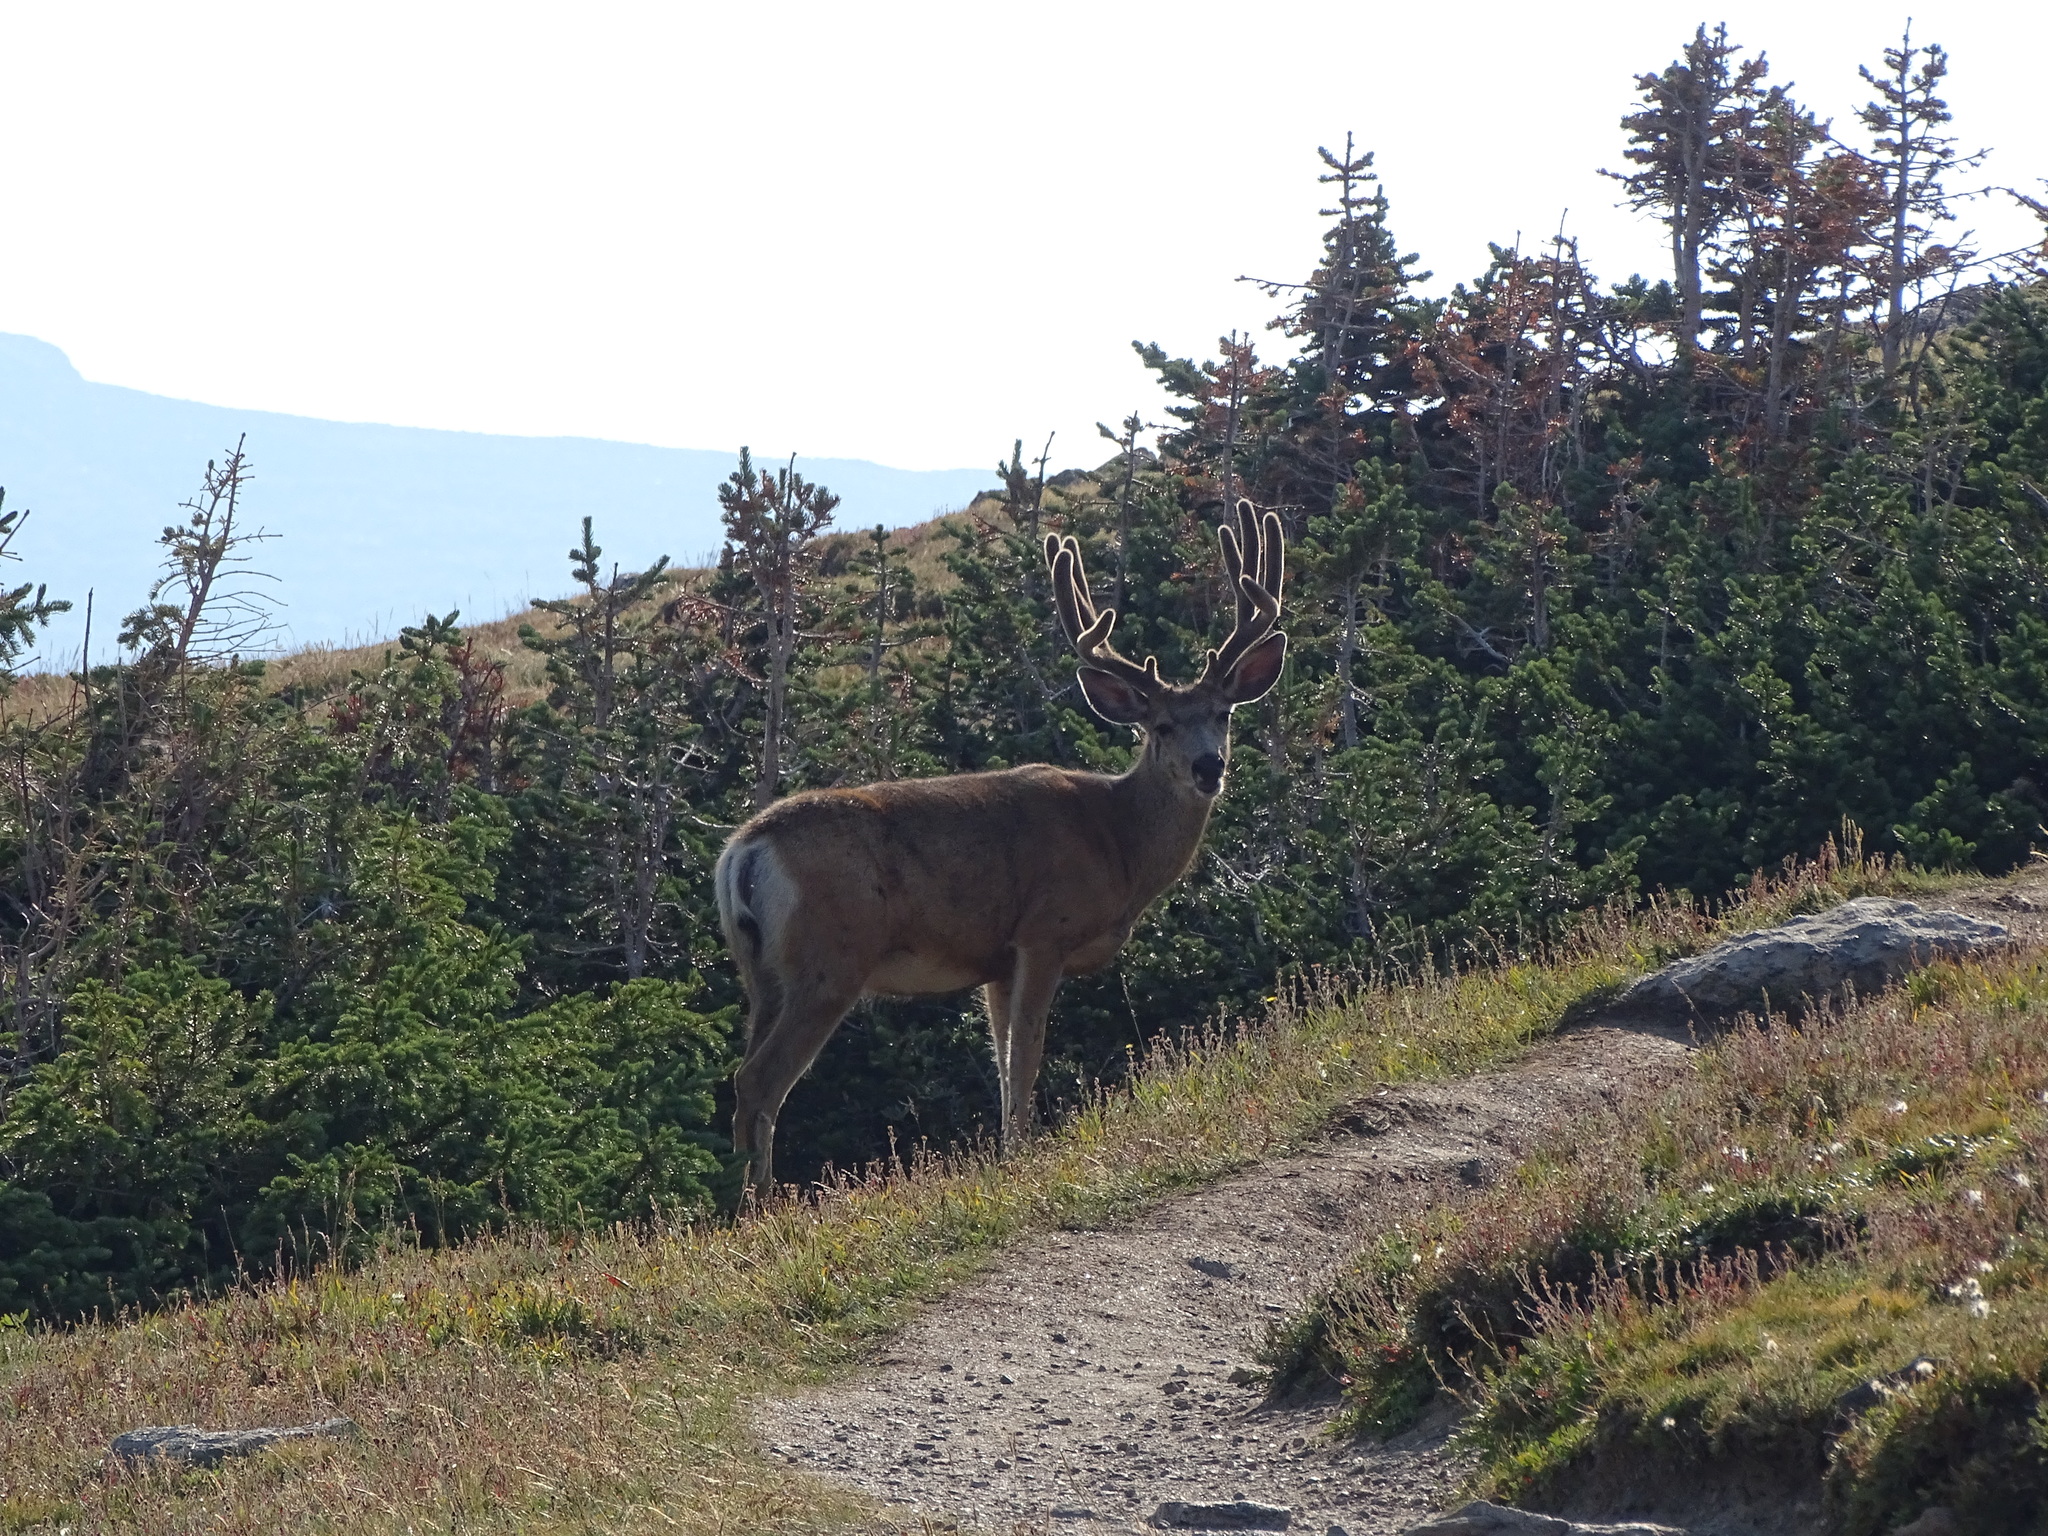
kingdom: Animalia
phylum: Chordata
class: Mammalia
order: Artiodactyla
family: Cervidae
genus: Odocoileus
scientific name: Odocoileus hemionus
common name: Mule deer
